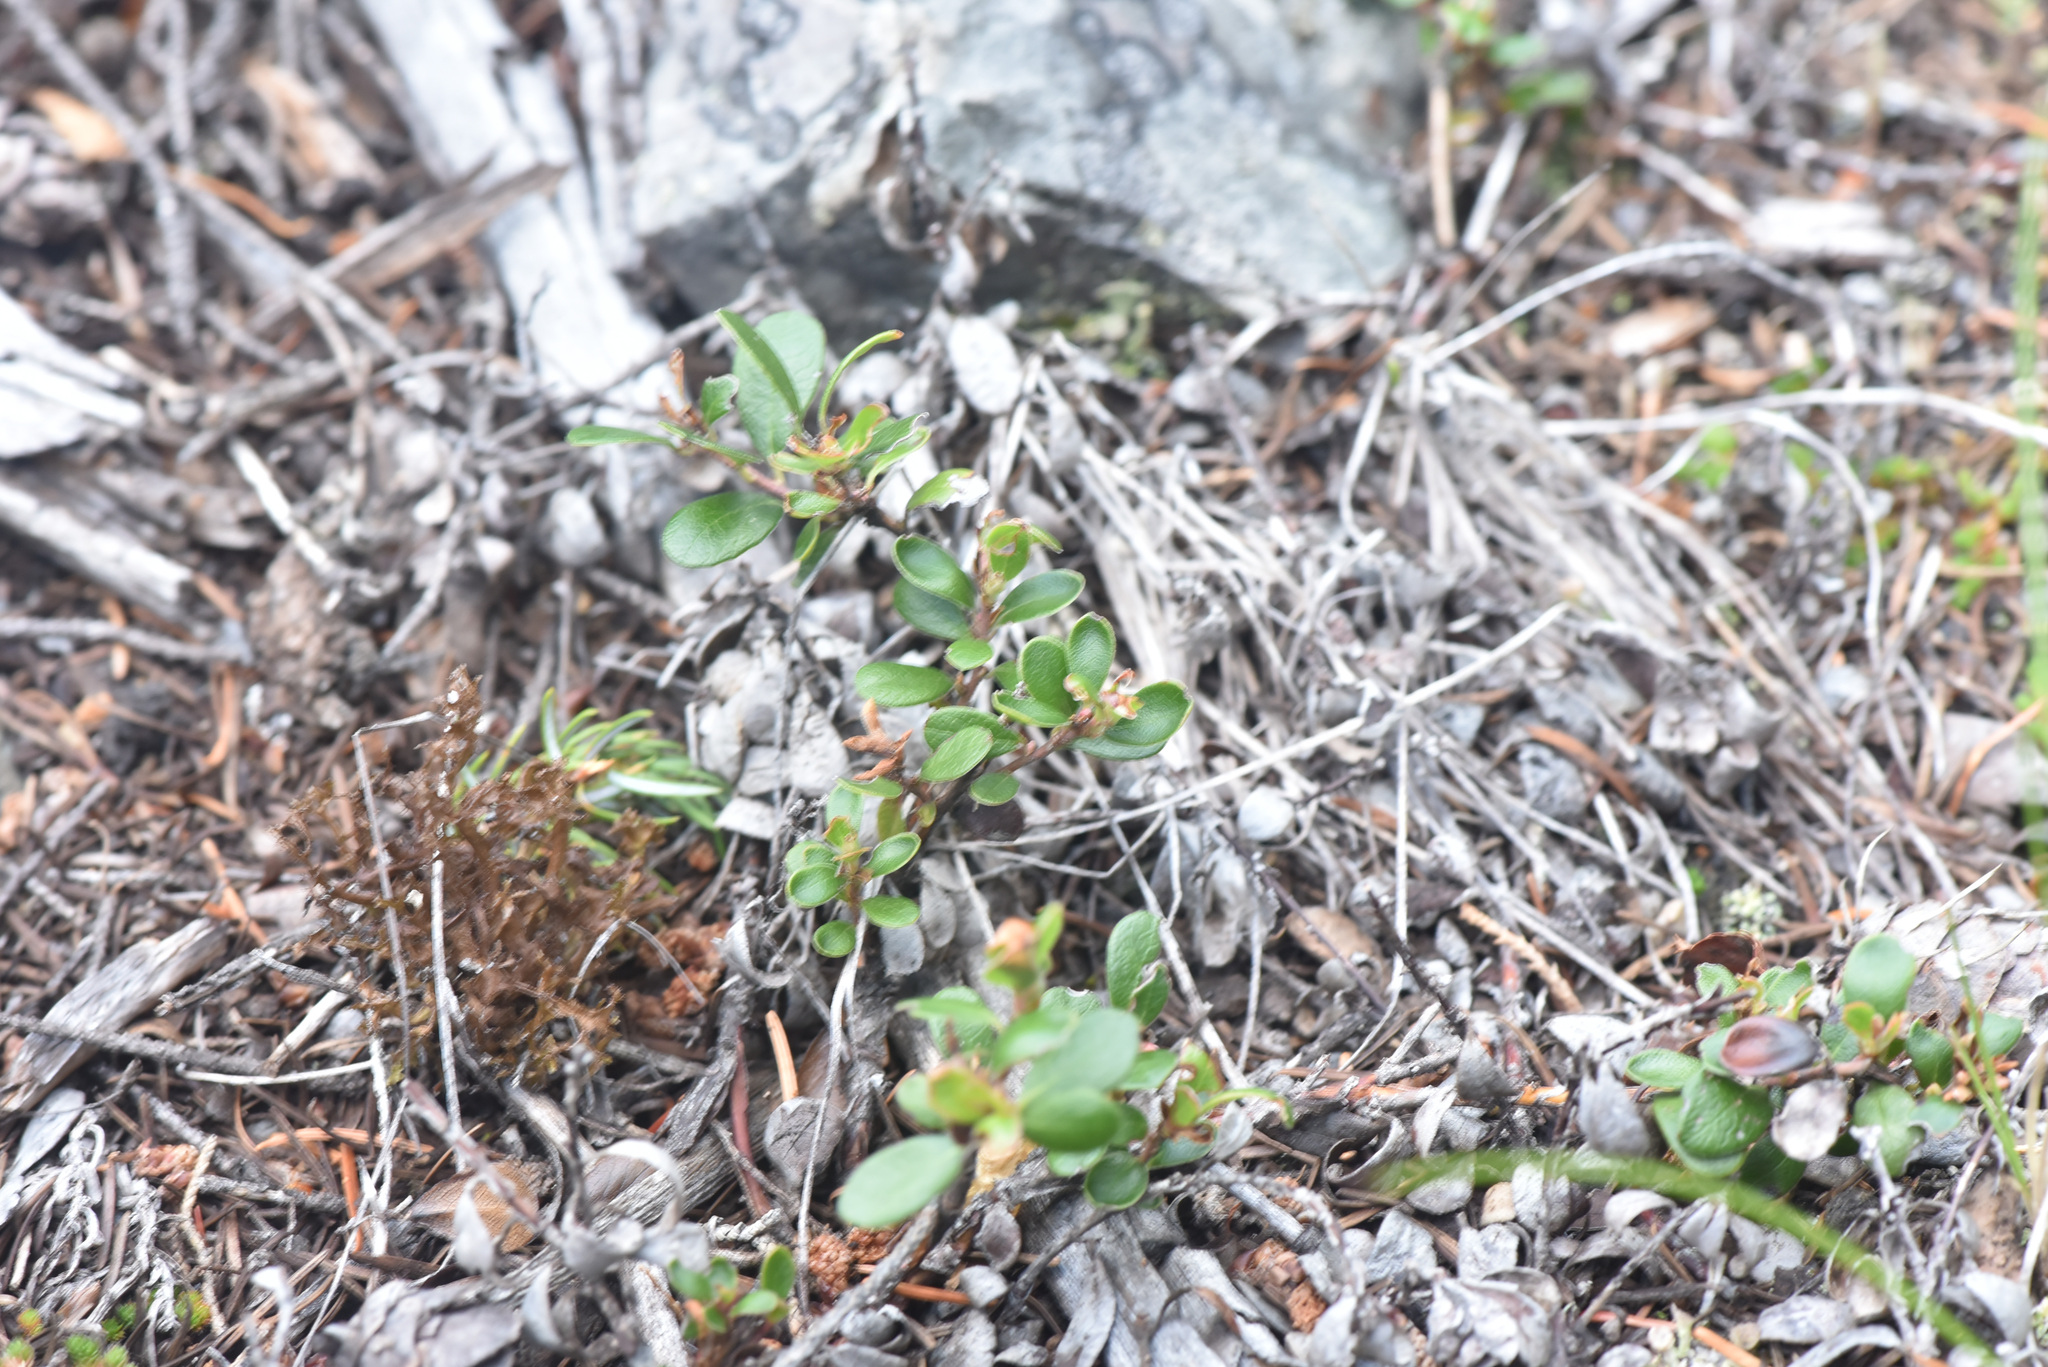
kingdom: Plantae
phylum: Tracheophyta
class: Magnoliopsida
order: Ericales
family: Ericaceae
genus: Arctostaphylos
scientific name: Arctostaphylos uva-ursi
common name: Bearberry
